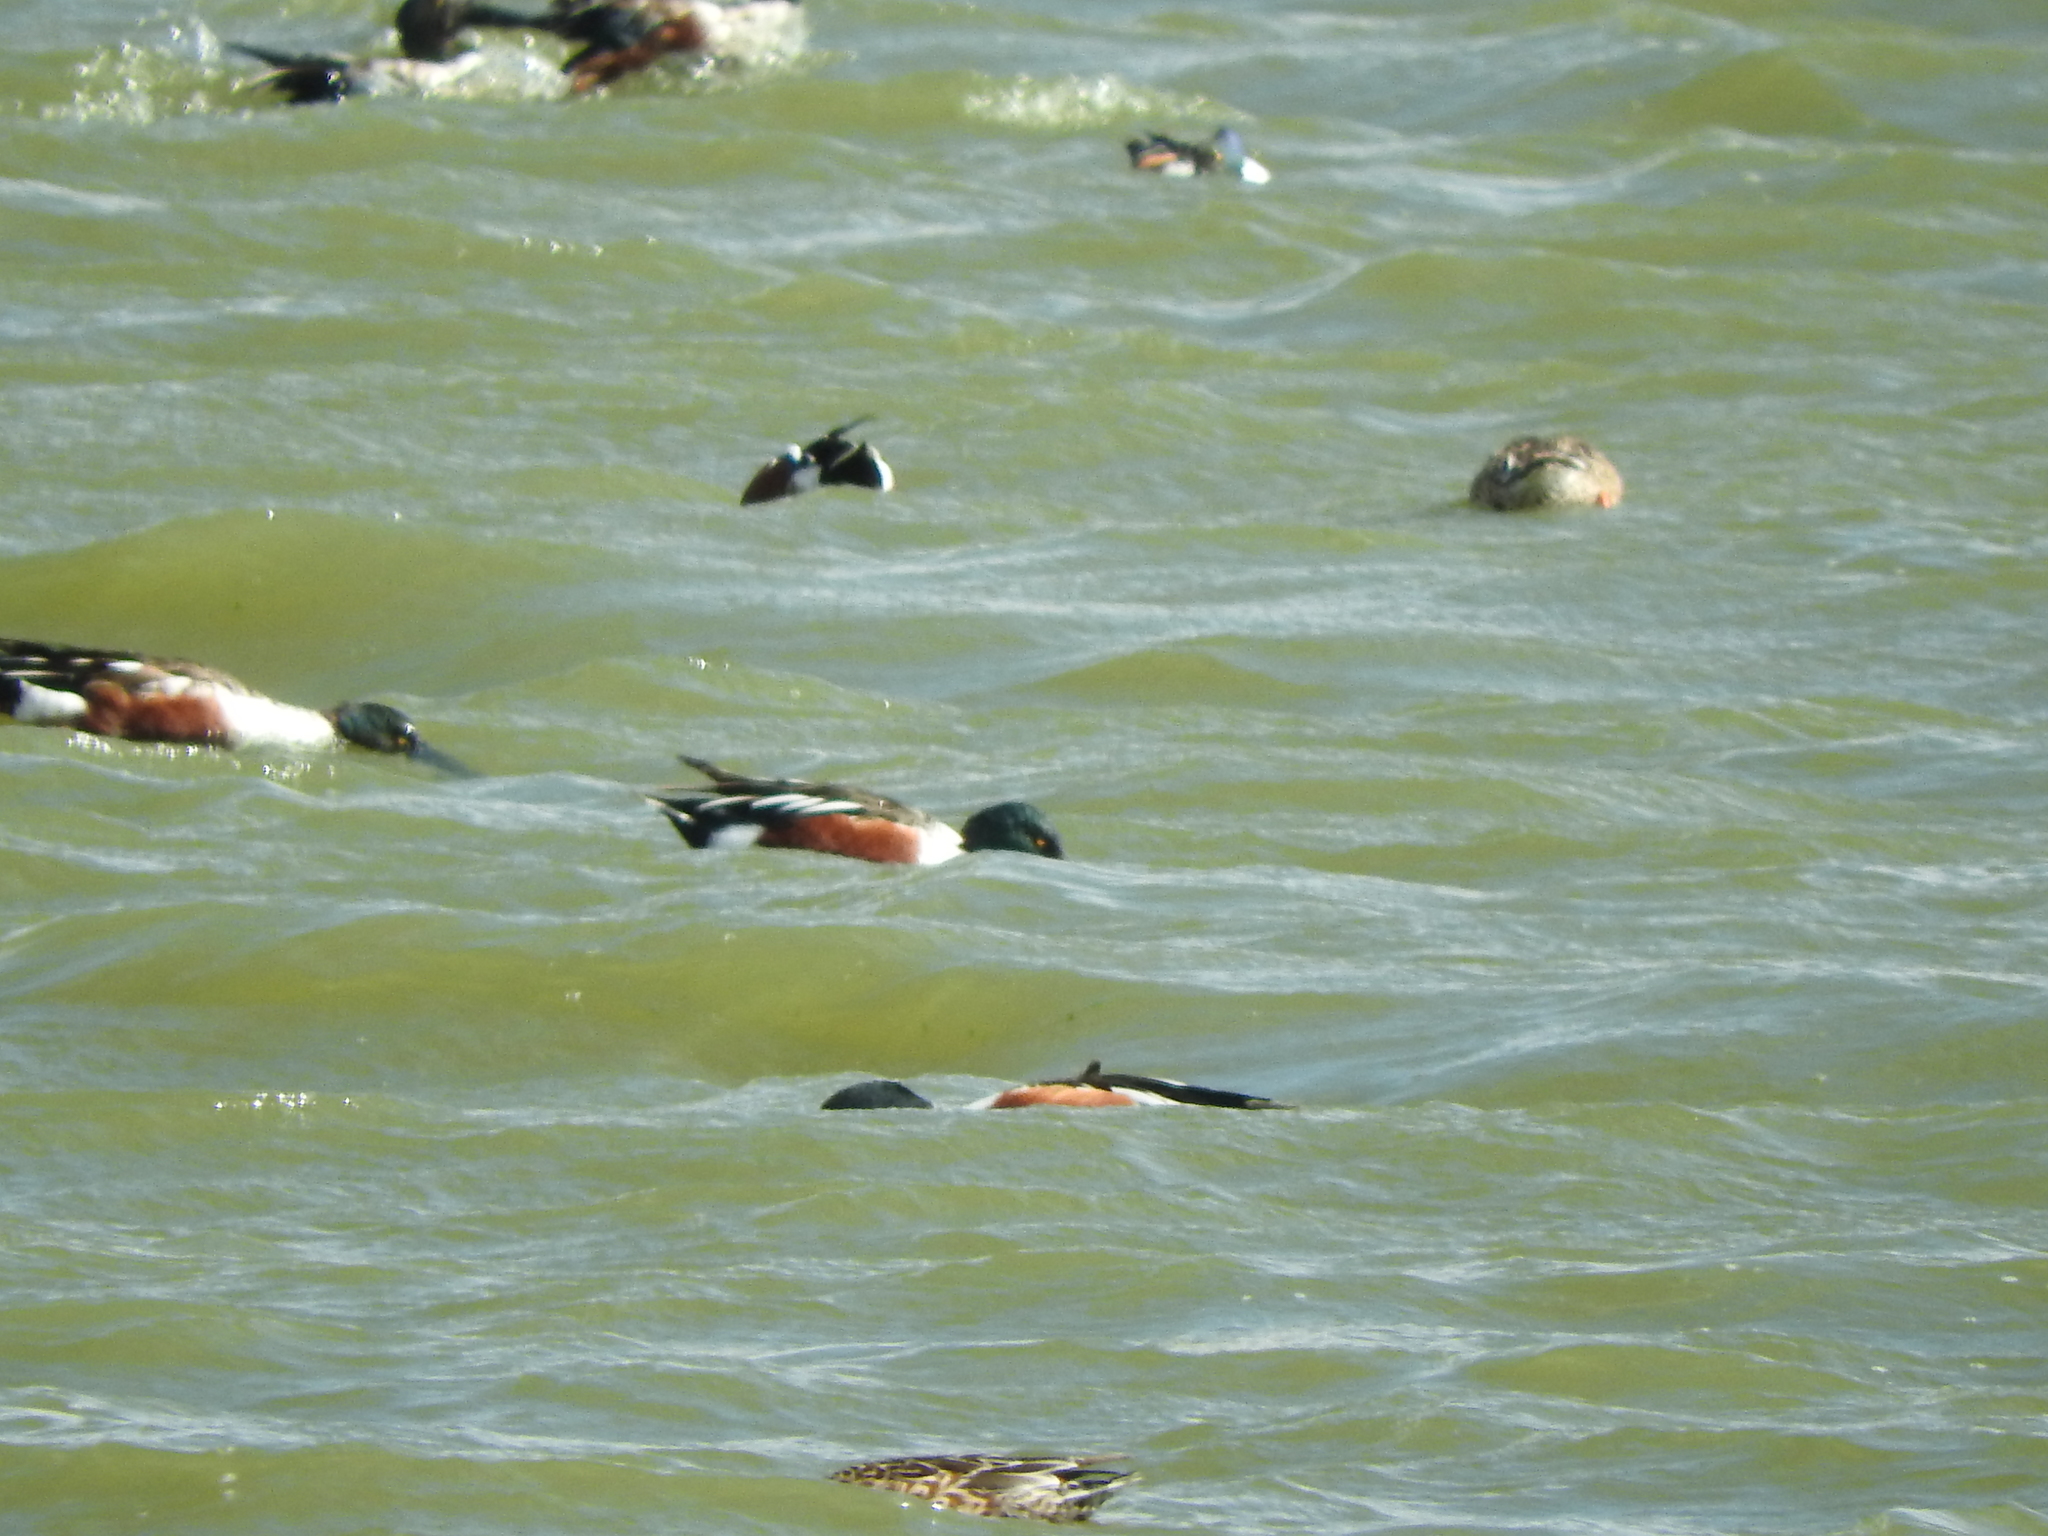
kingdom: Animalia
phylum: Chordata
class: Aves
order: Anseriformes
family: Anatidae
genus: Spatula
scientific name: Spatula clypeata
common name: Northern shoveler
